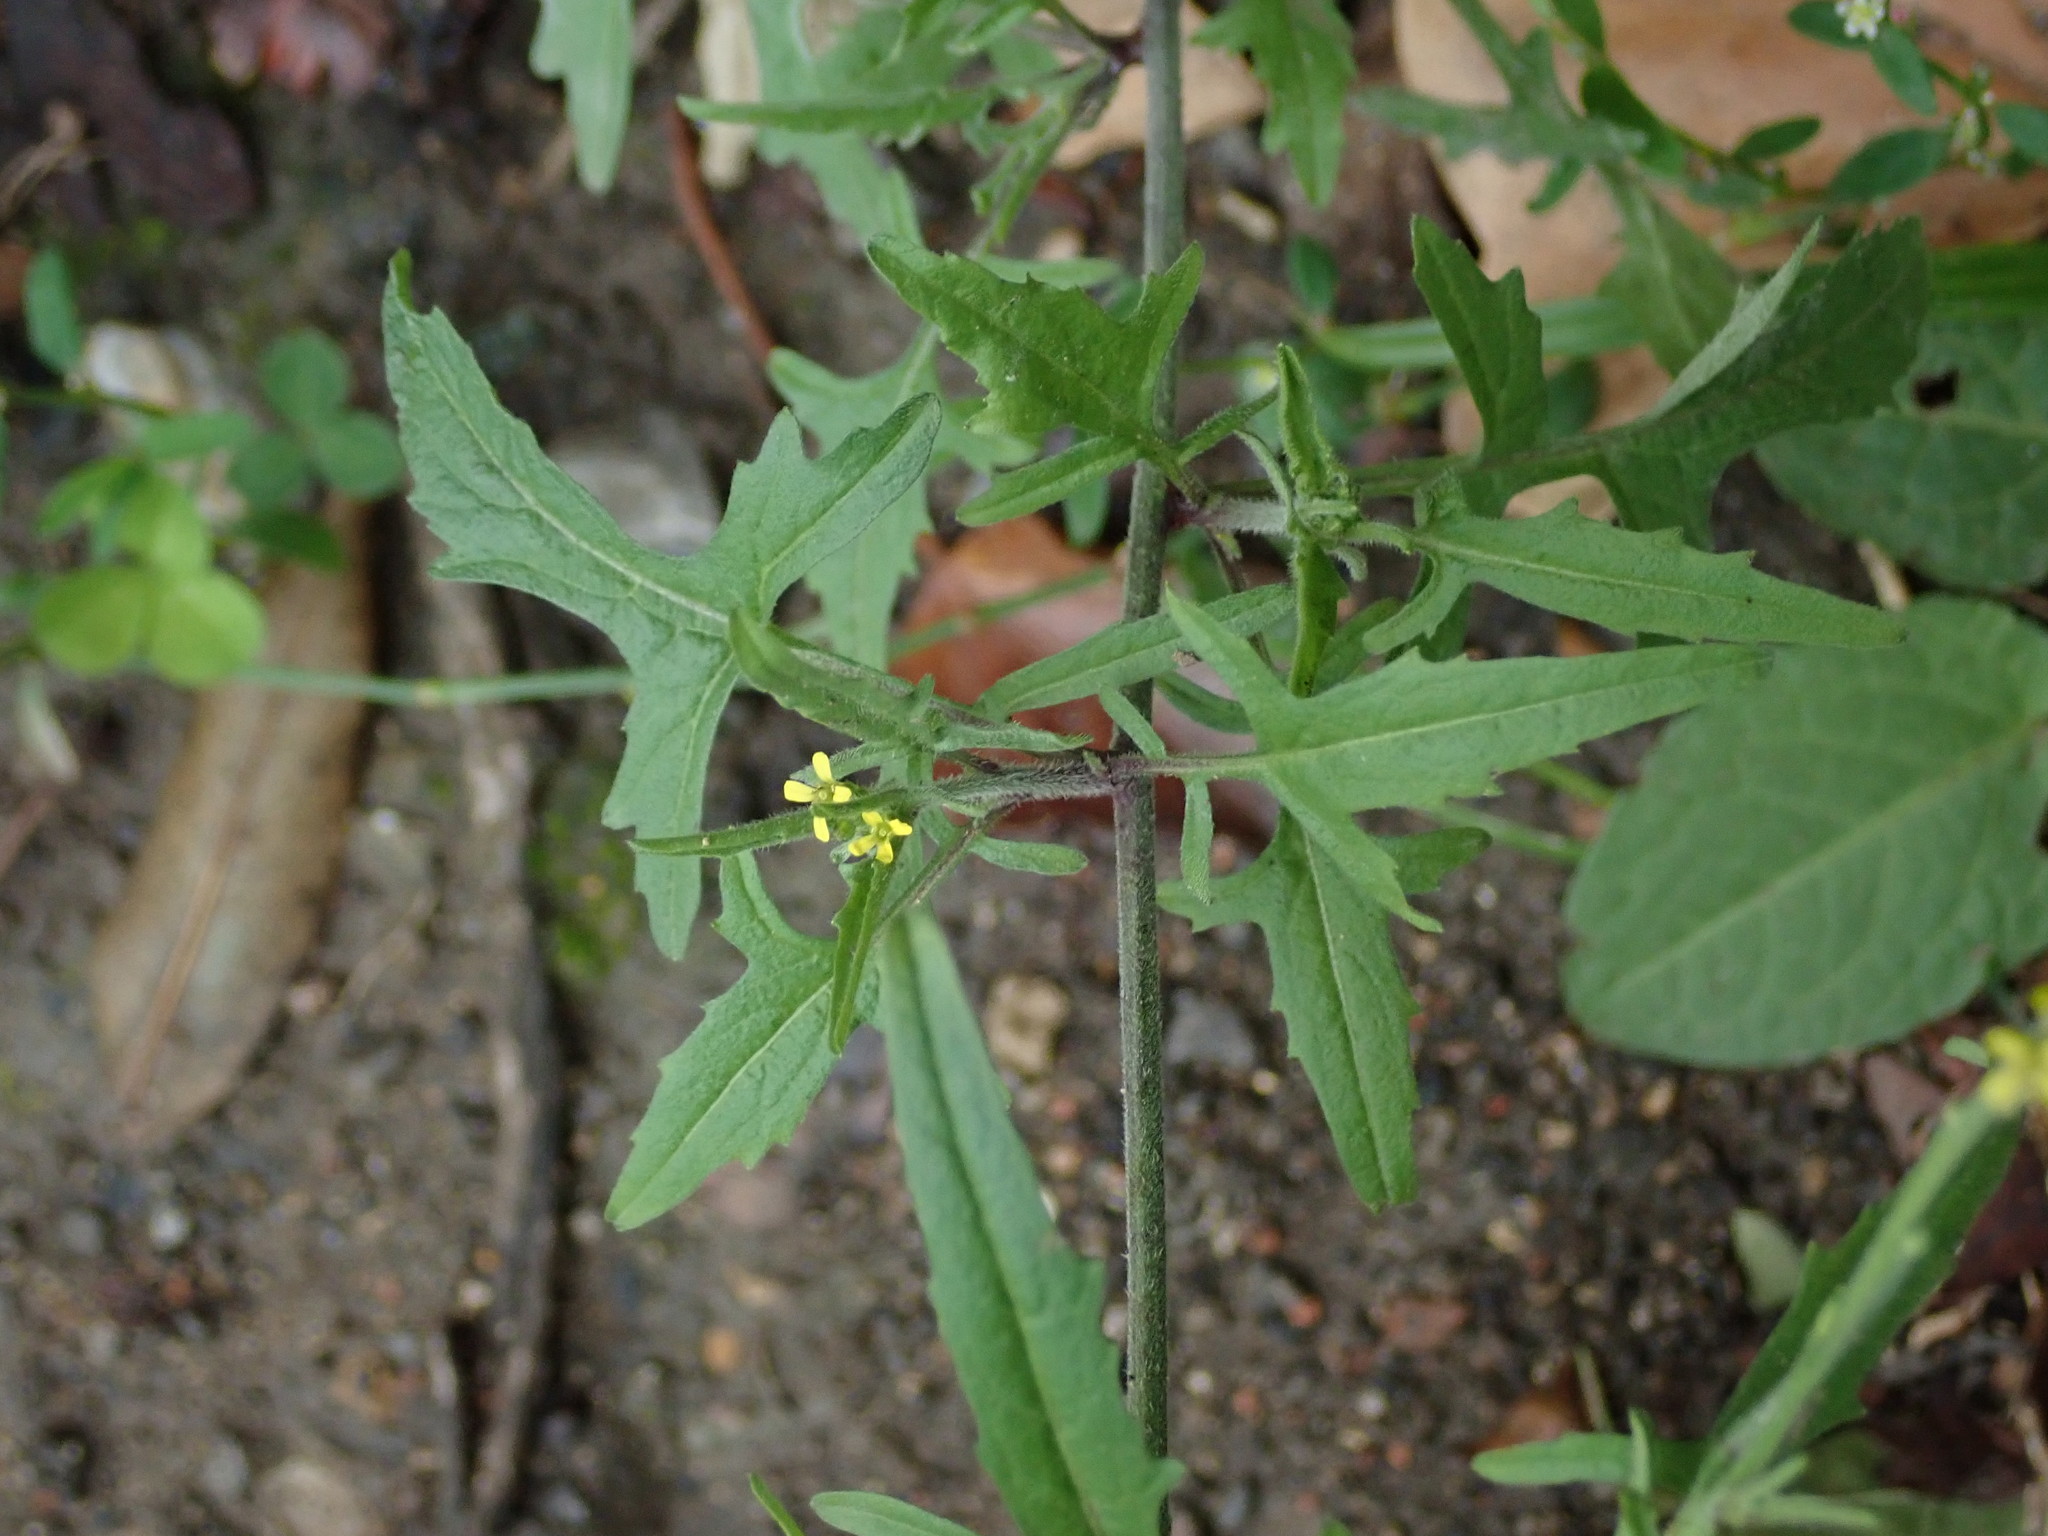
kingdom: Plantae
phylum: Tracheophyta
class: Magnoliopsida
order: Brassicales
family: Brassicaceae
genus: Sisymbrium
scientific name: Sisymbrium officinale
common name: Hedge mustard
